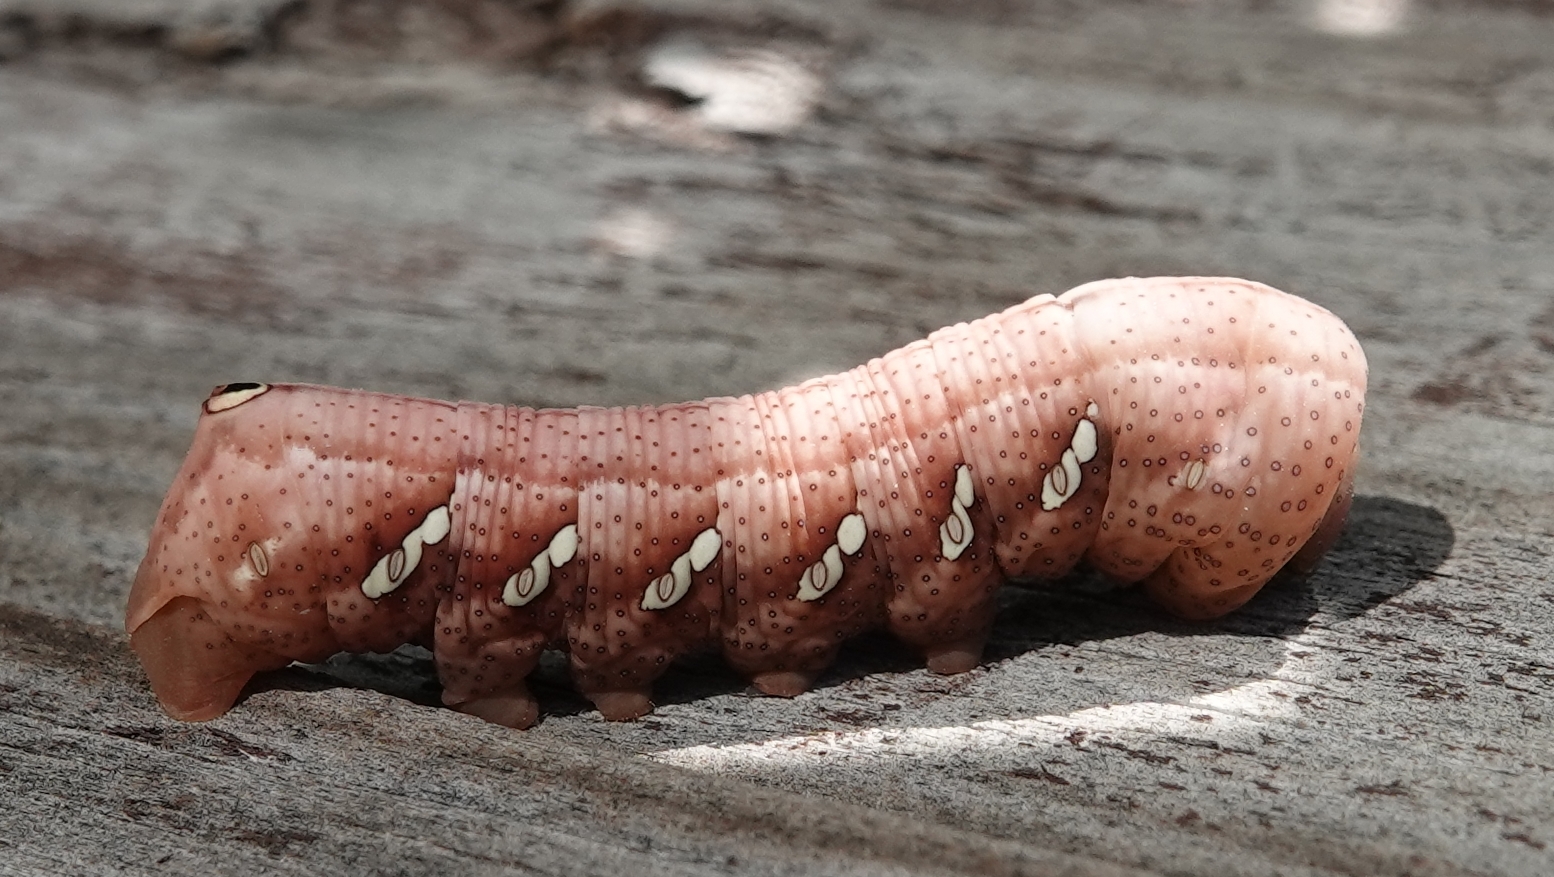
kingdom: Animalia
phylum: Arthropoda
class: Insecta
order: Lepidoptera
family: Sphingidae
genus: Eumorpha
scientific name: Eumorpha achemon
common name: Achemon sphinx
